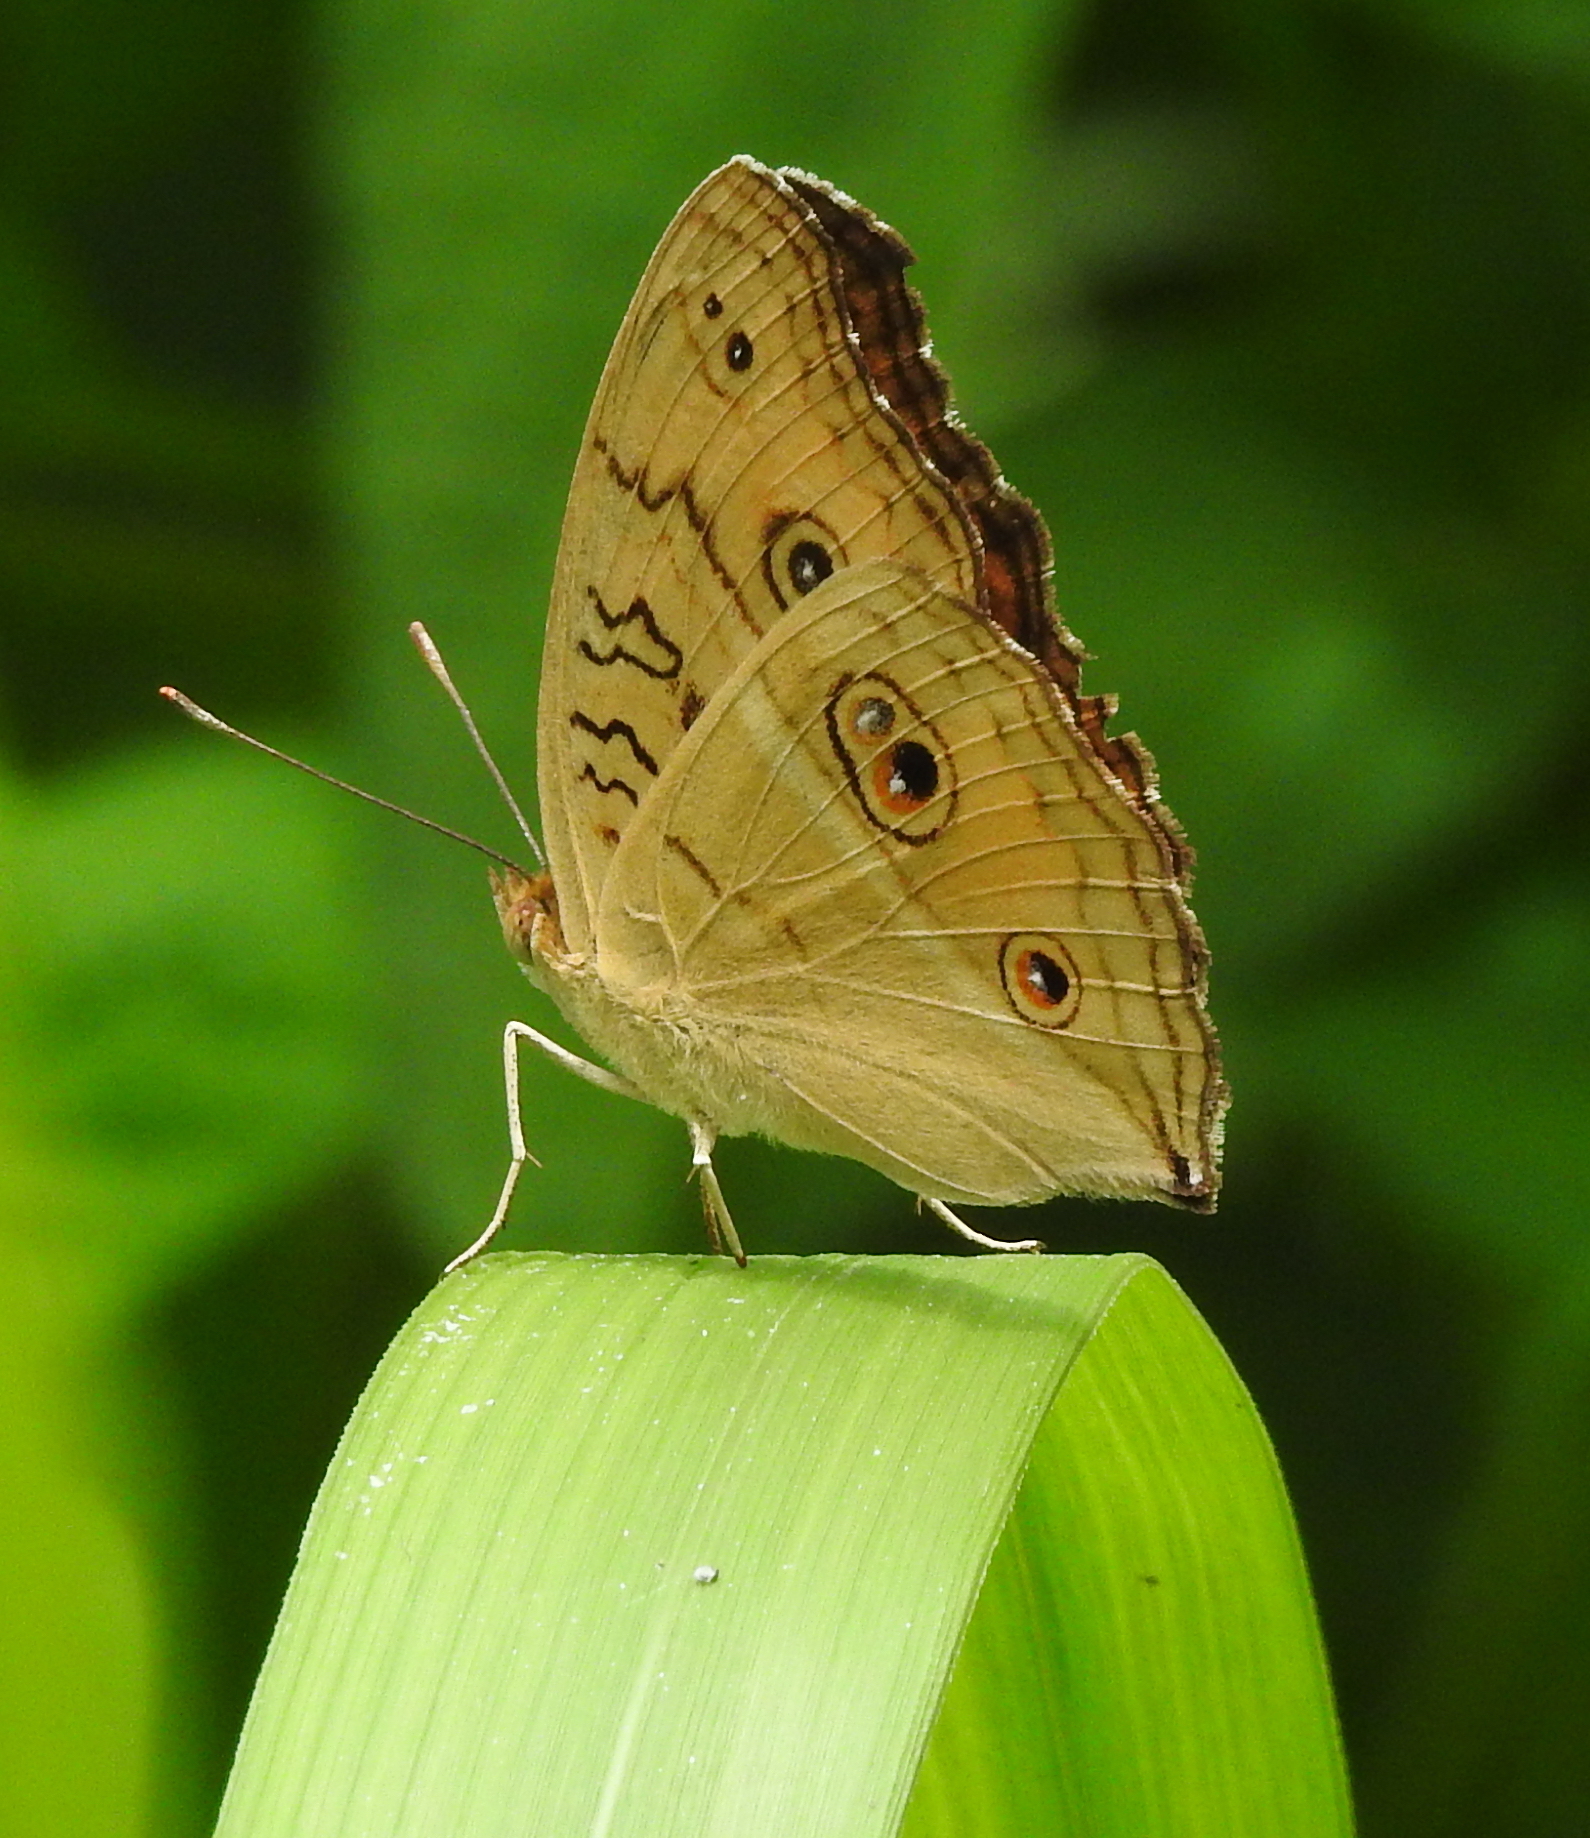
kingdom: Animalia
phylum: Arthropoda
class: Insecta
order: Lepidoptera
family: Nymphalidae
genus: Junonia
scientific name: Junonia almana
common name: Peacock pansy
